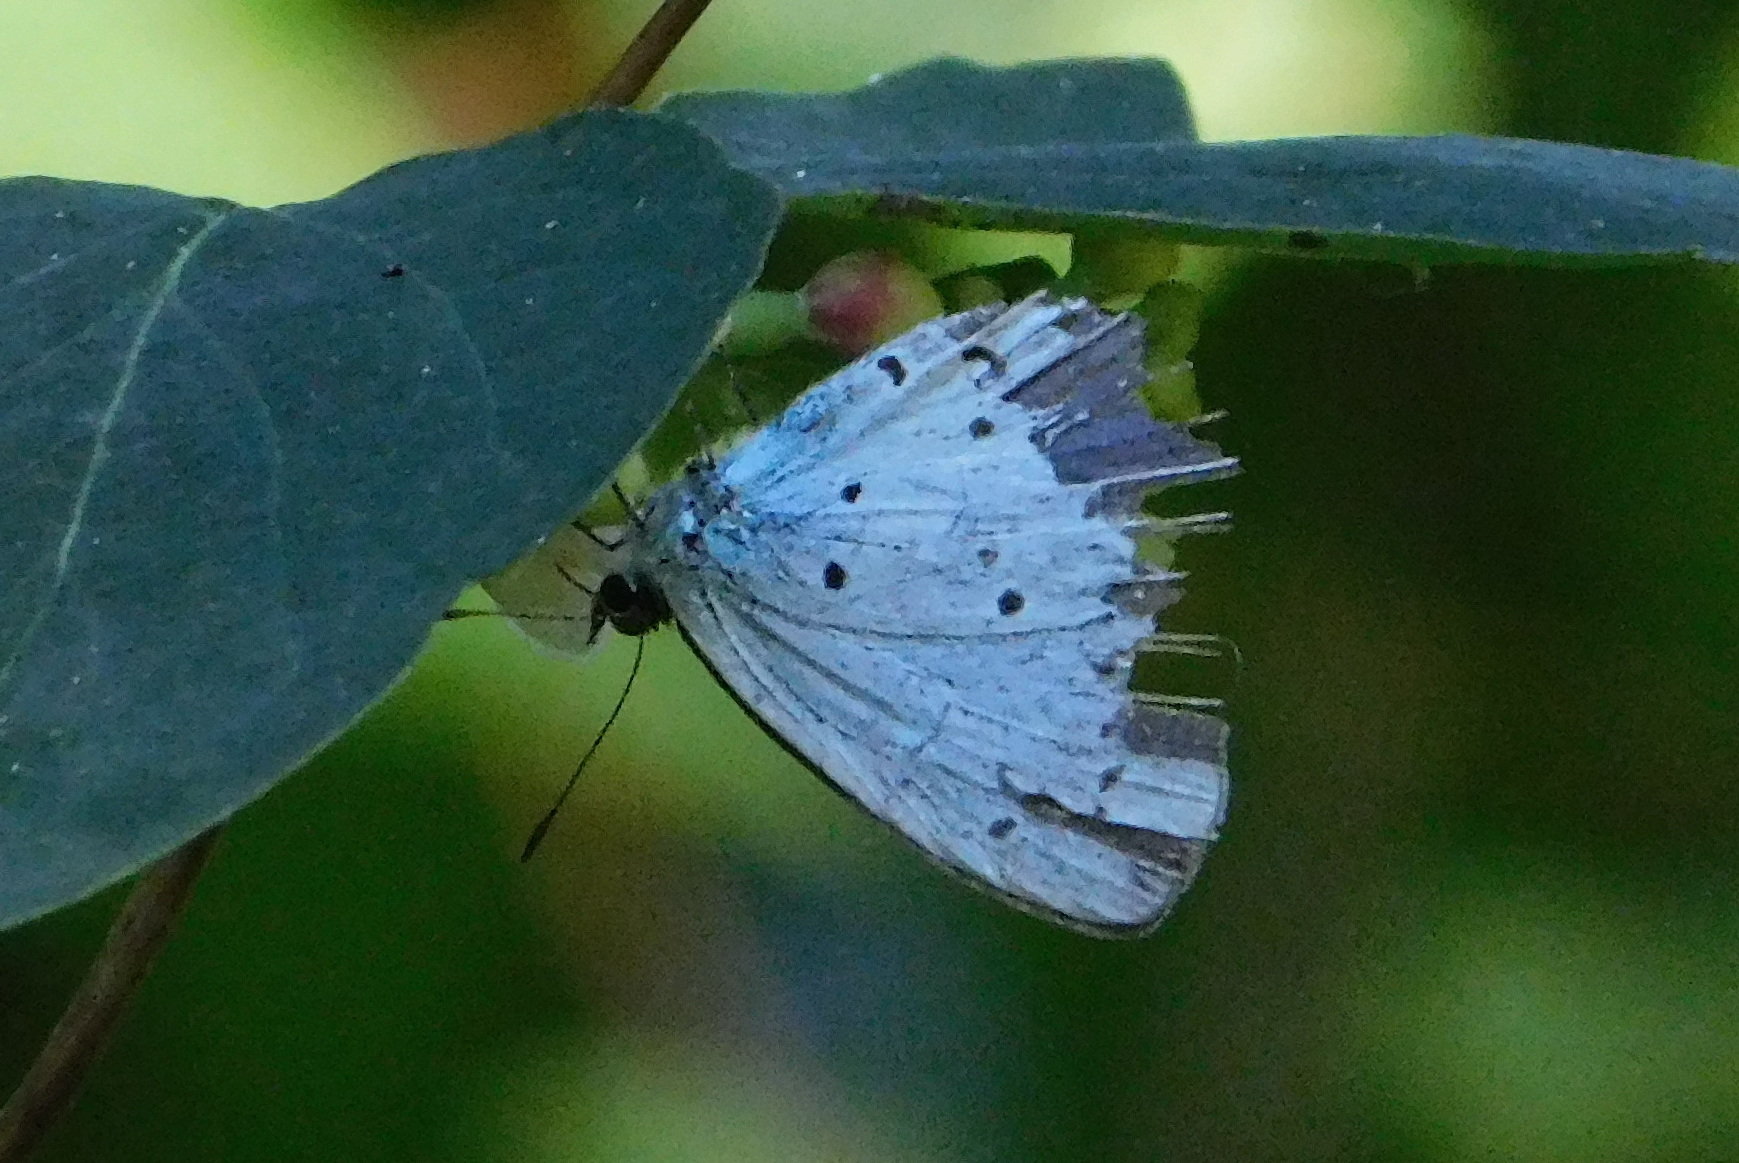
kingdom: Animalia
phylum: Arthropoda
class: Insecta
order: Lepidoptera
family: Lycaenidae
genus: Celastrina
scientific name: Celastrina argiolus
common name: Holly blue
